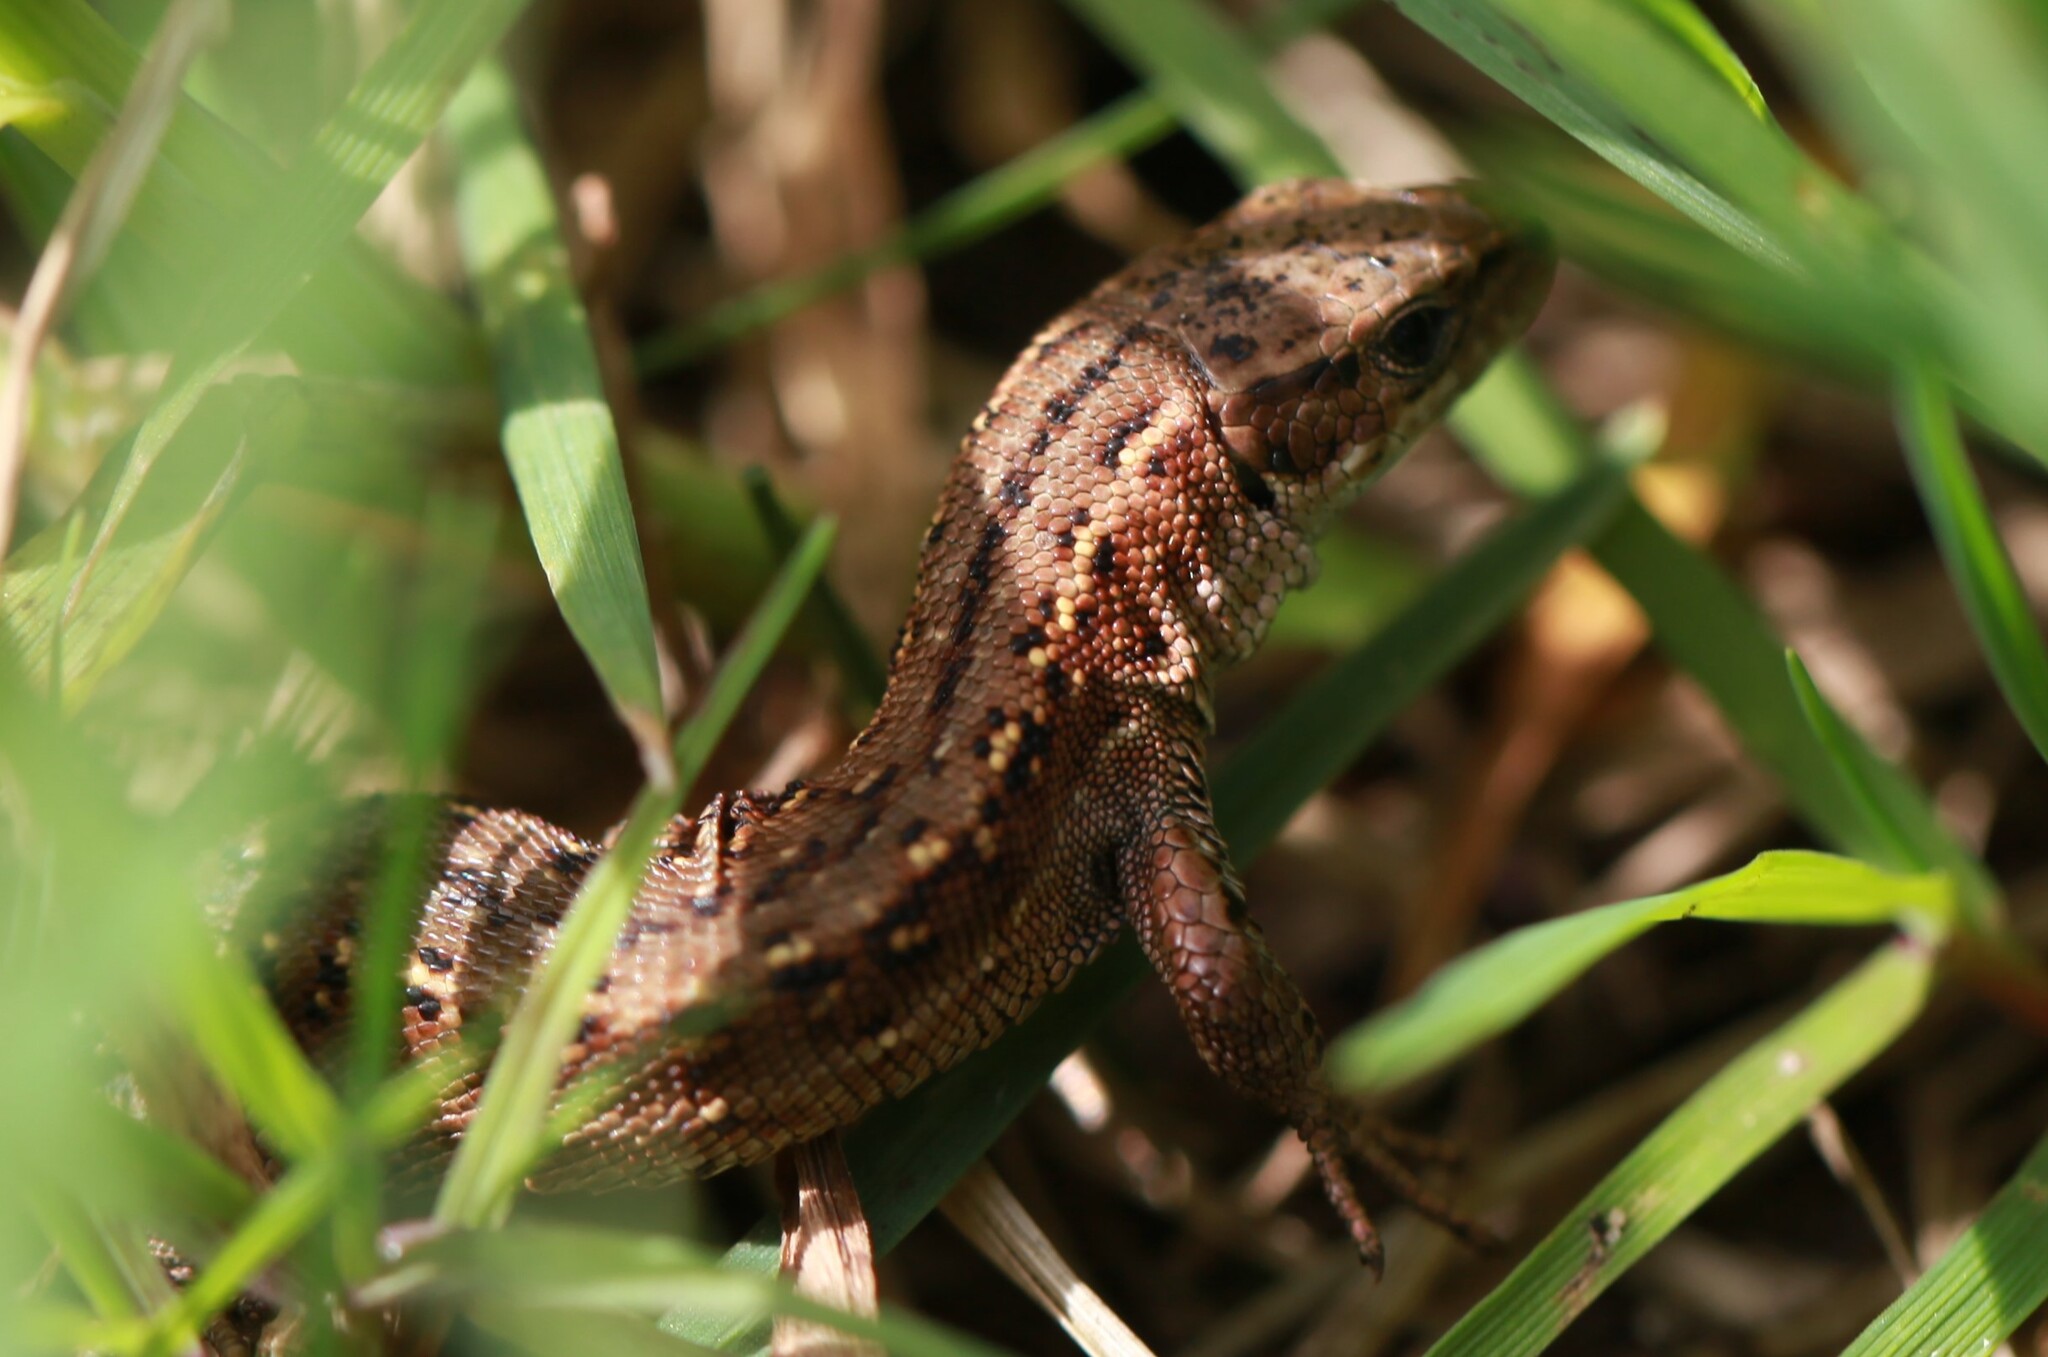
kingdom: Animalia
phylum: Chordata
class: Squamata
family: Lacertidae
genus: Zootoca
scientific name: Zootoca vivipara
